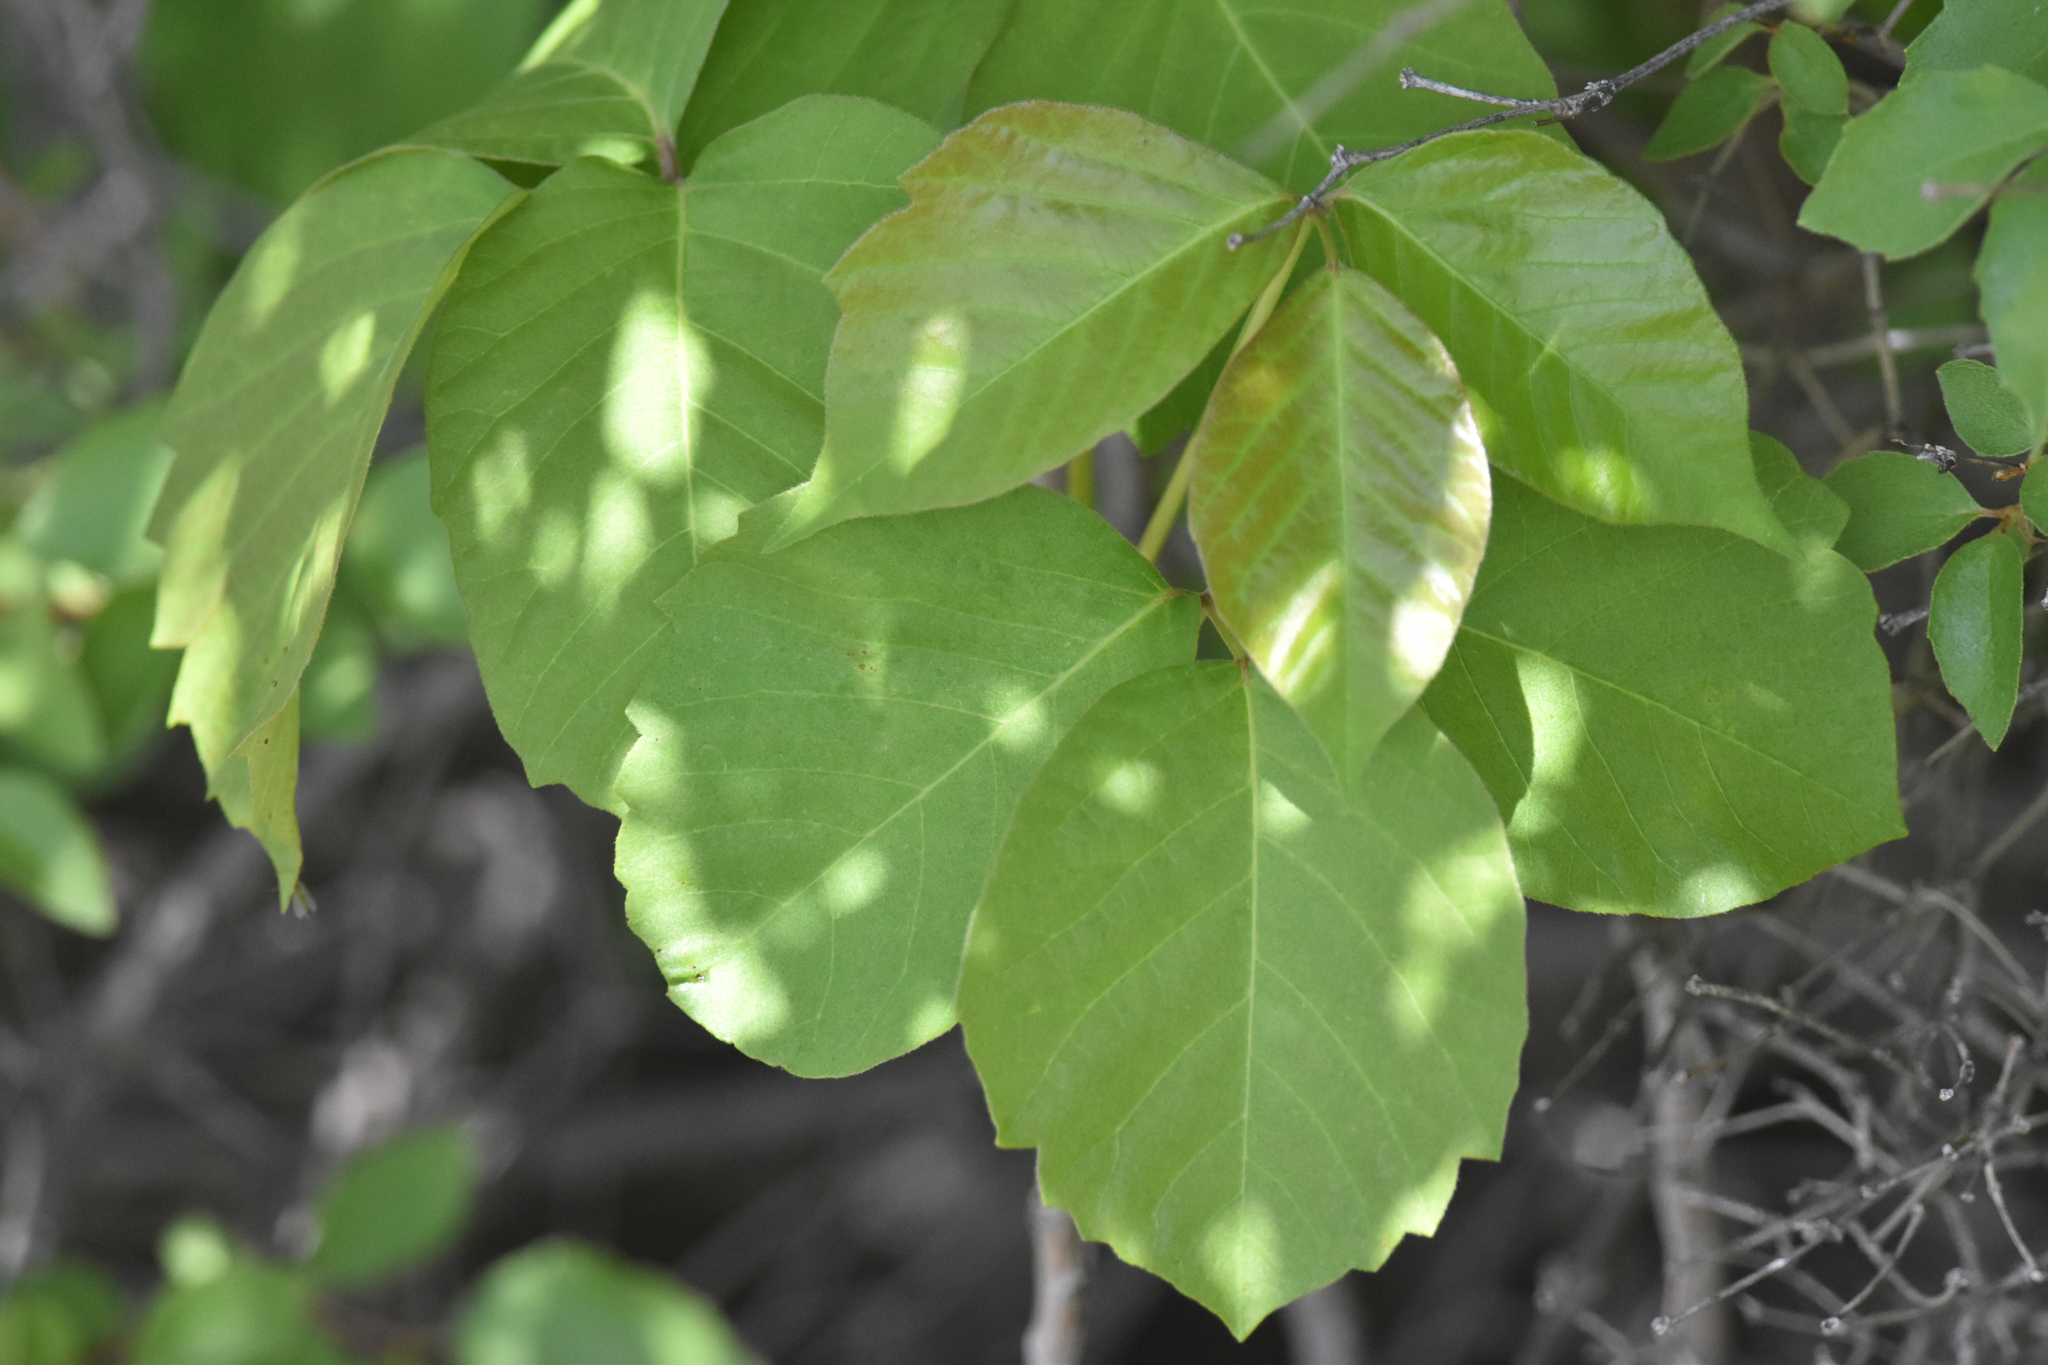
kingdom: Plantae
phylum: Tracheophyta
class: Magnoliopsida
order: Sapindales
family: Anacardiaceae
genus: Toxicodendron
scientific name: Toxicodendron rydbergii
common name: Rydberg's poison-ivy
